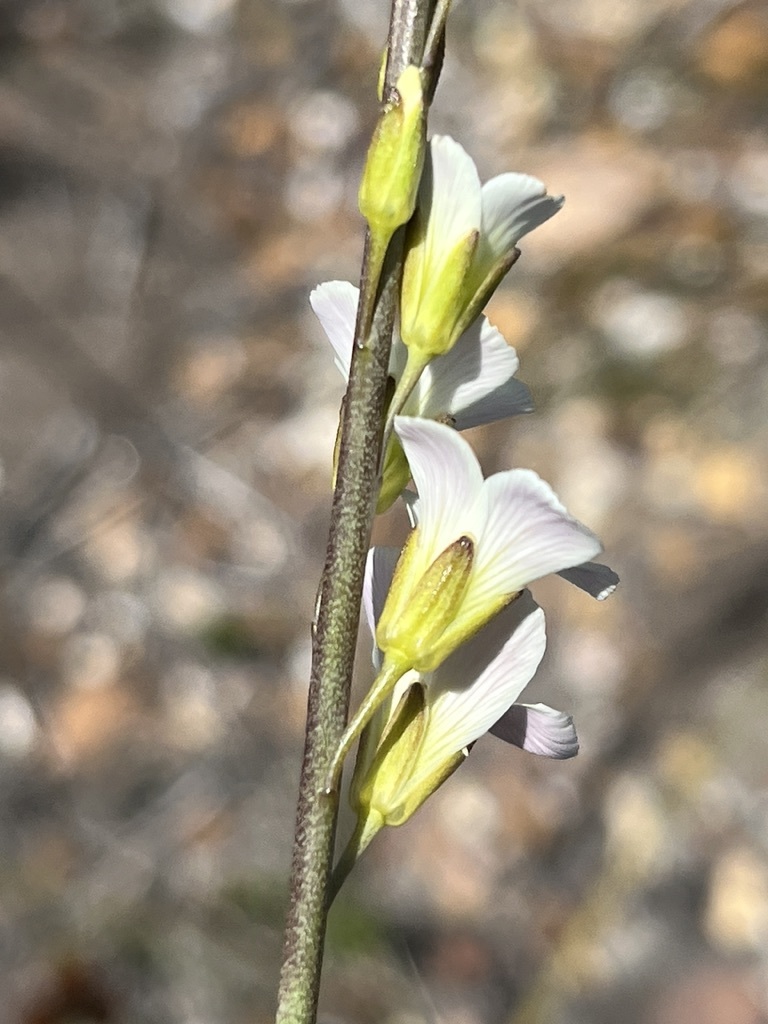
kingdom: Plantae
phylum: Tracheophyta
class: Magnoliopsida
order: Brassicales
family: Brassicaceae
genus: Heliophila
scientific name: Heliophila macra
